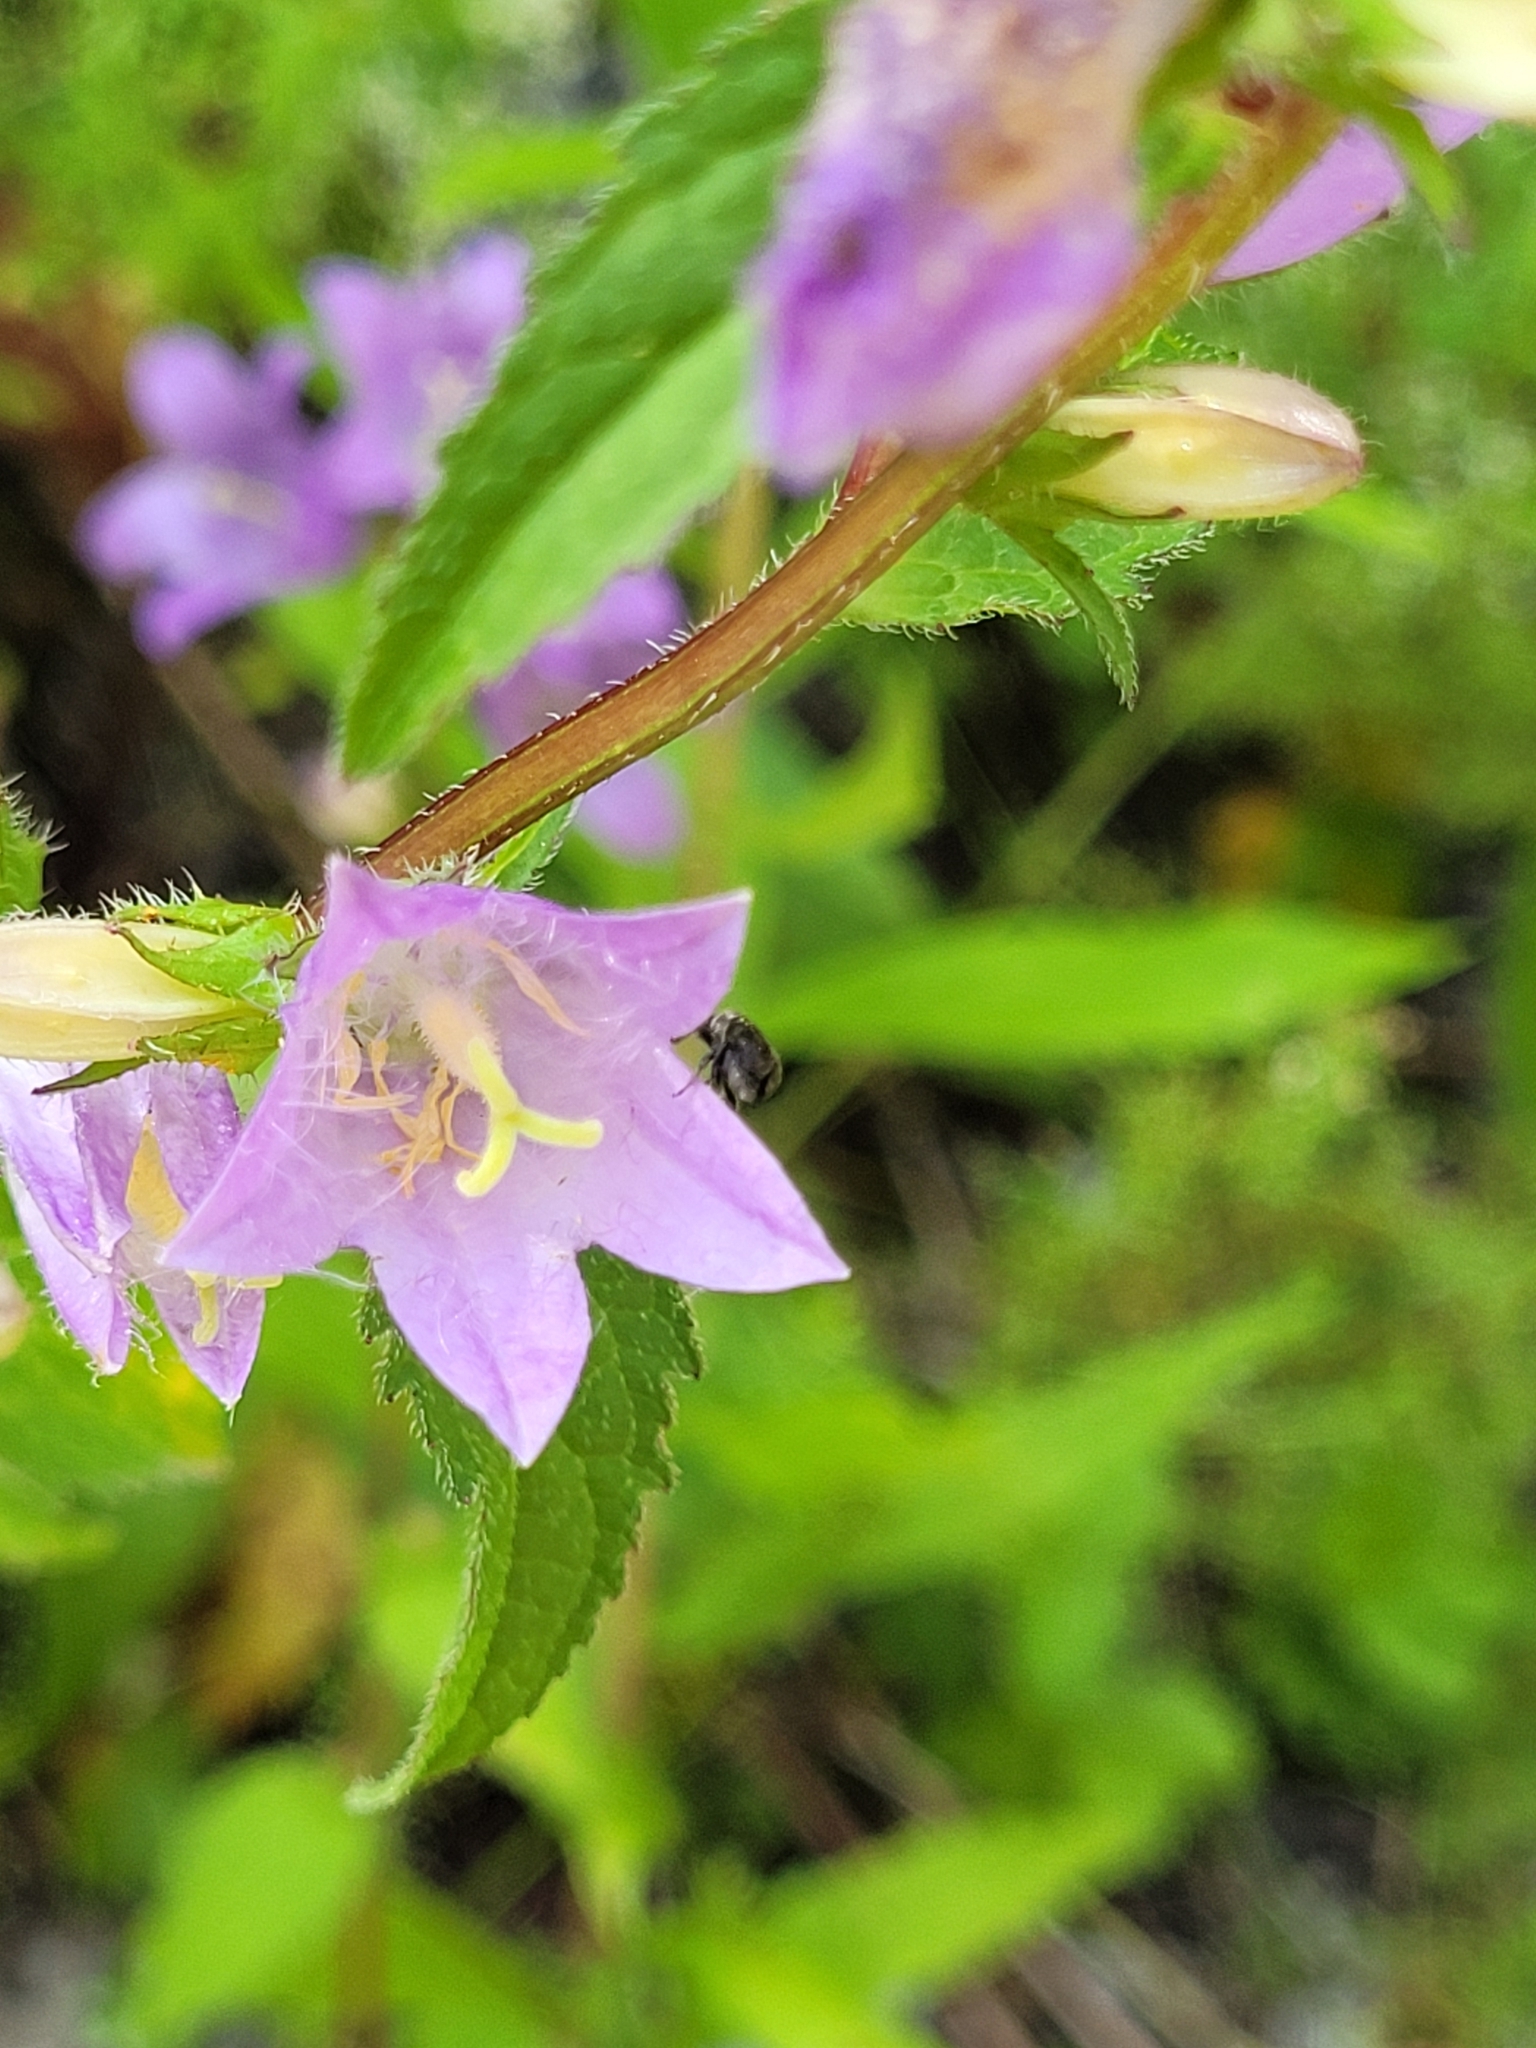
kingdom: Plantae
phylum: Tracheophyta
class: Magnoliopsida
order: Asterales
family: Campanulaceae
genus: Campanula
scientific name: Campanula trachelium
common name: Nettle-leaved bellflower
